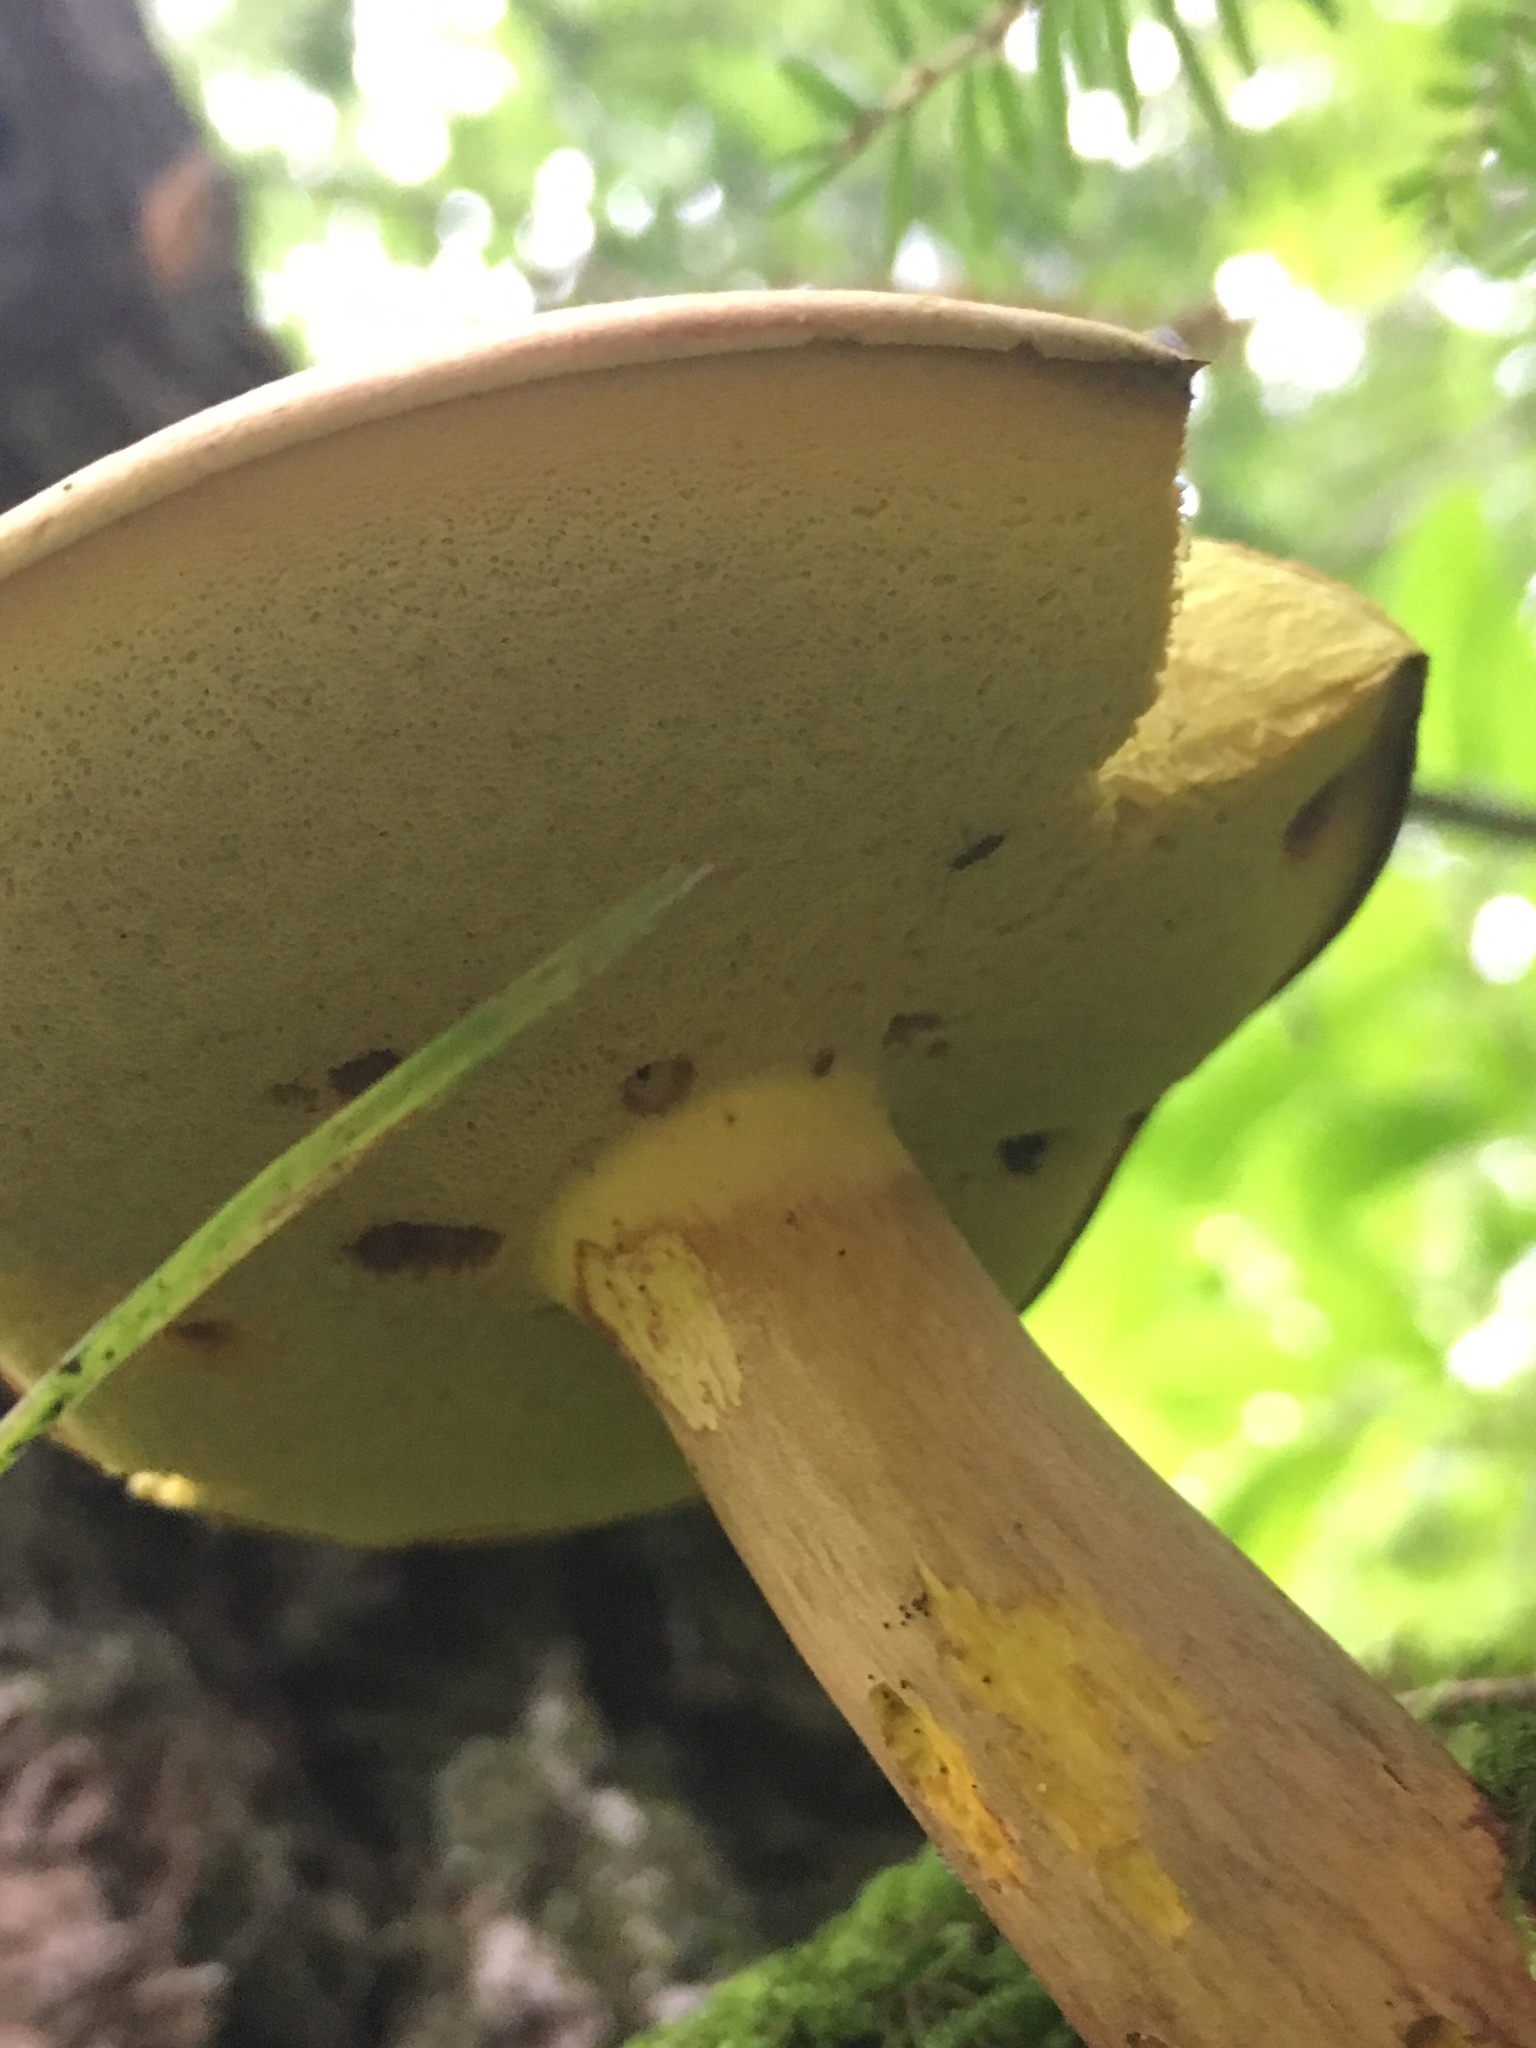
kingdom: Fungi
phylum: Basidiomycota
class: Agaricomycetes
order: Boletales
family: Boletaceae
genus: Baorangia
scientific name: Baorangia bicolor
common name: Two-colored bolete
